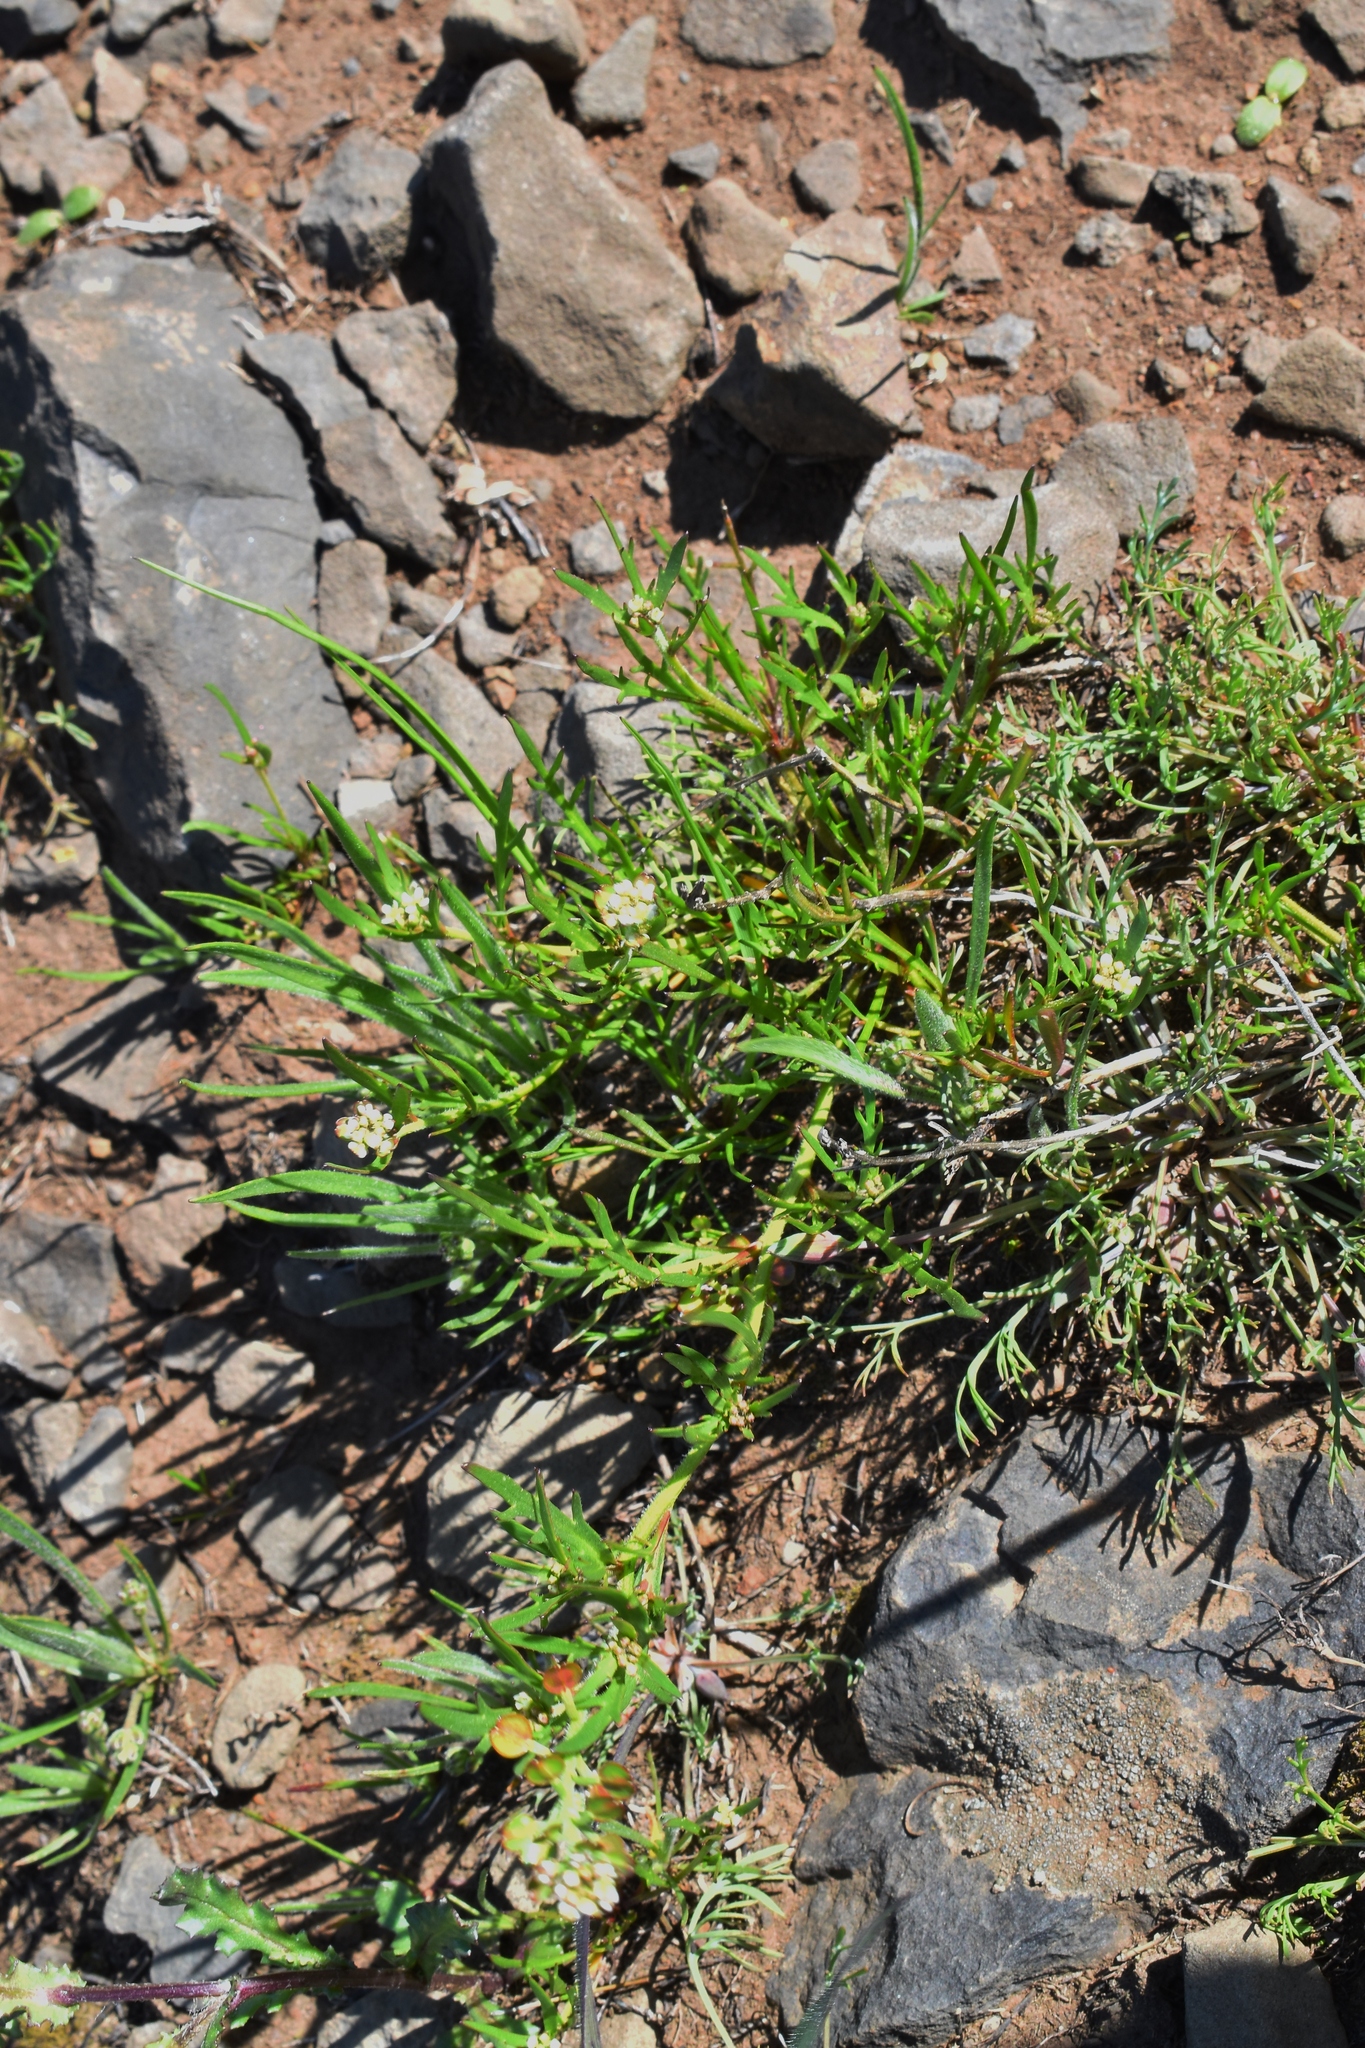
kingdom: Plantae
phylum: Tracheophyta
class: Magnoliopsida
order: Brassicales
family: Brassicaceae
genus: Lepidium
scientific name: Lepidium nitidum
